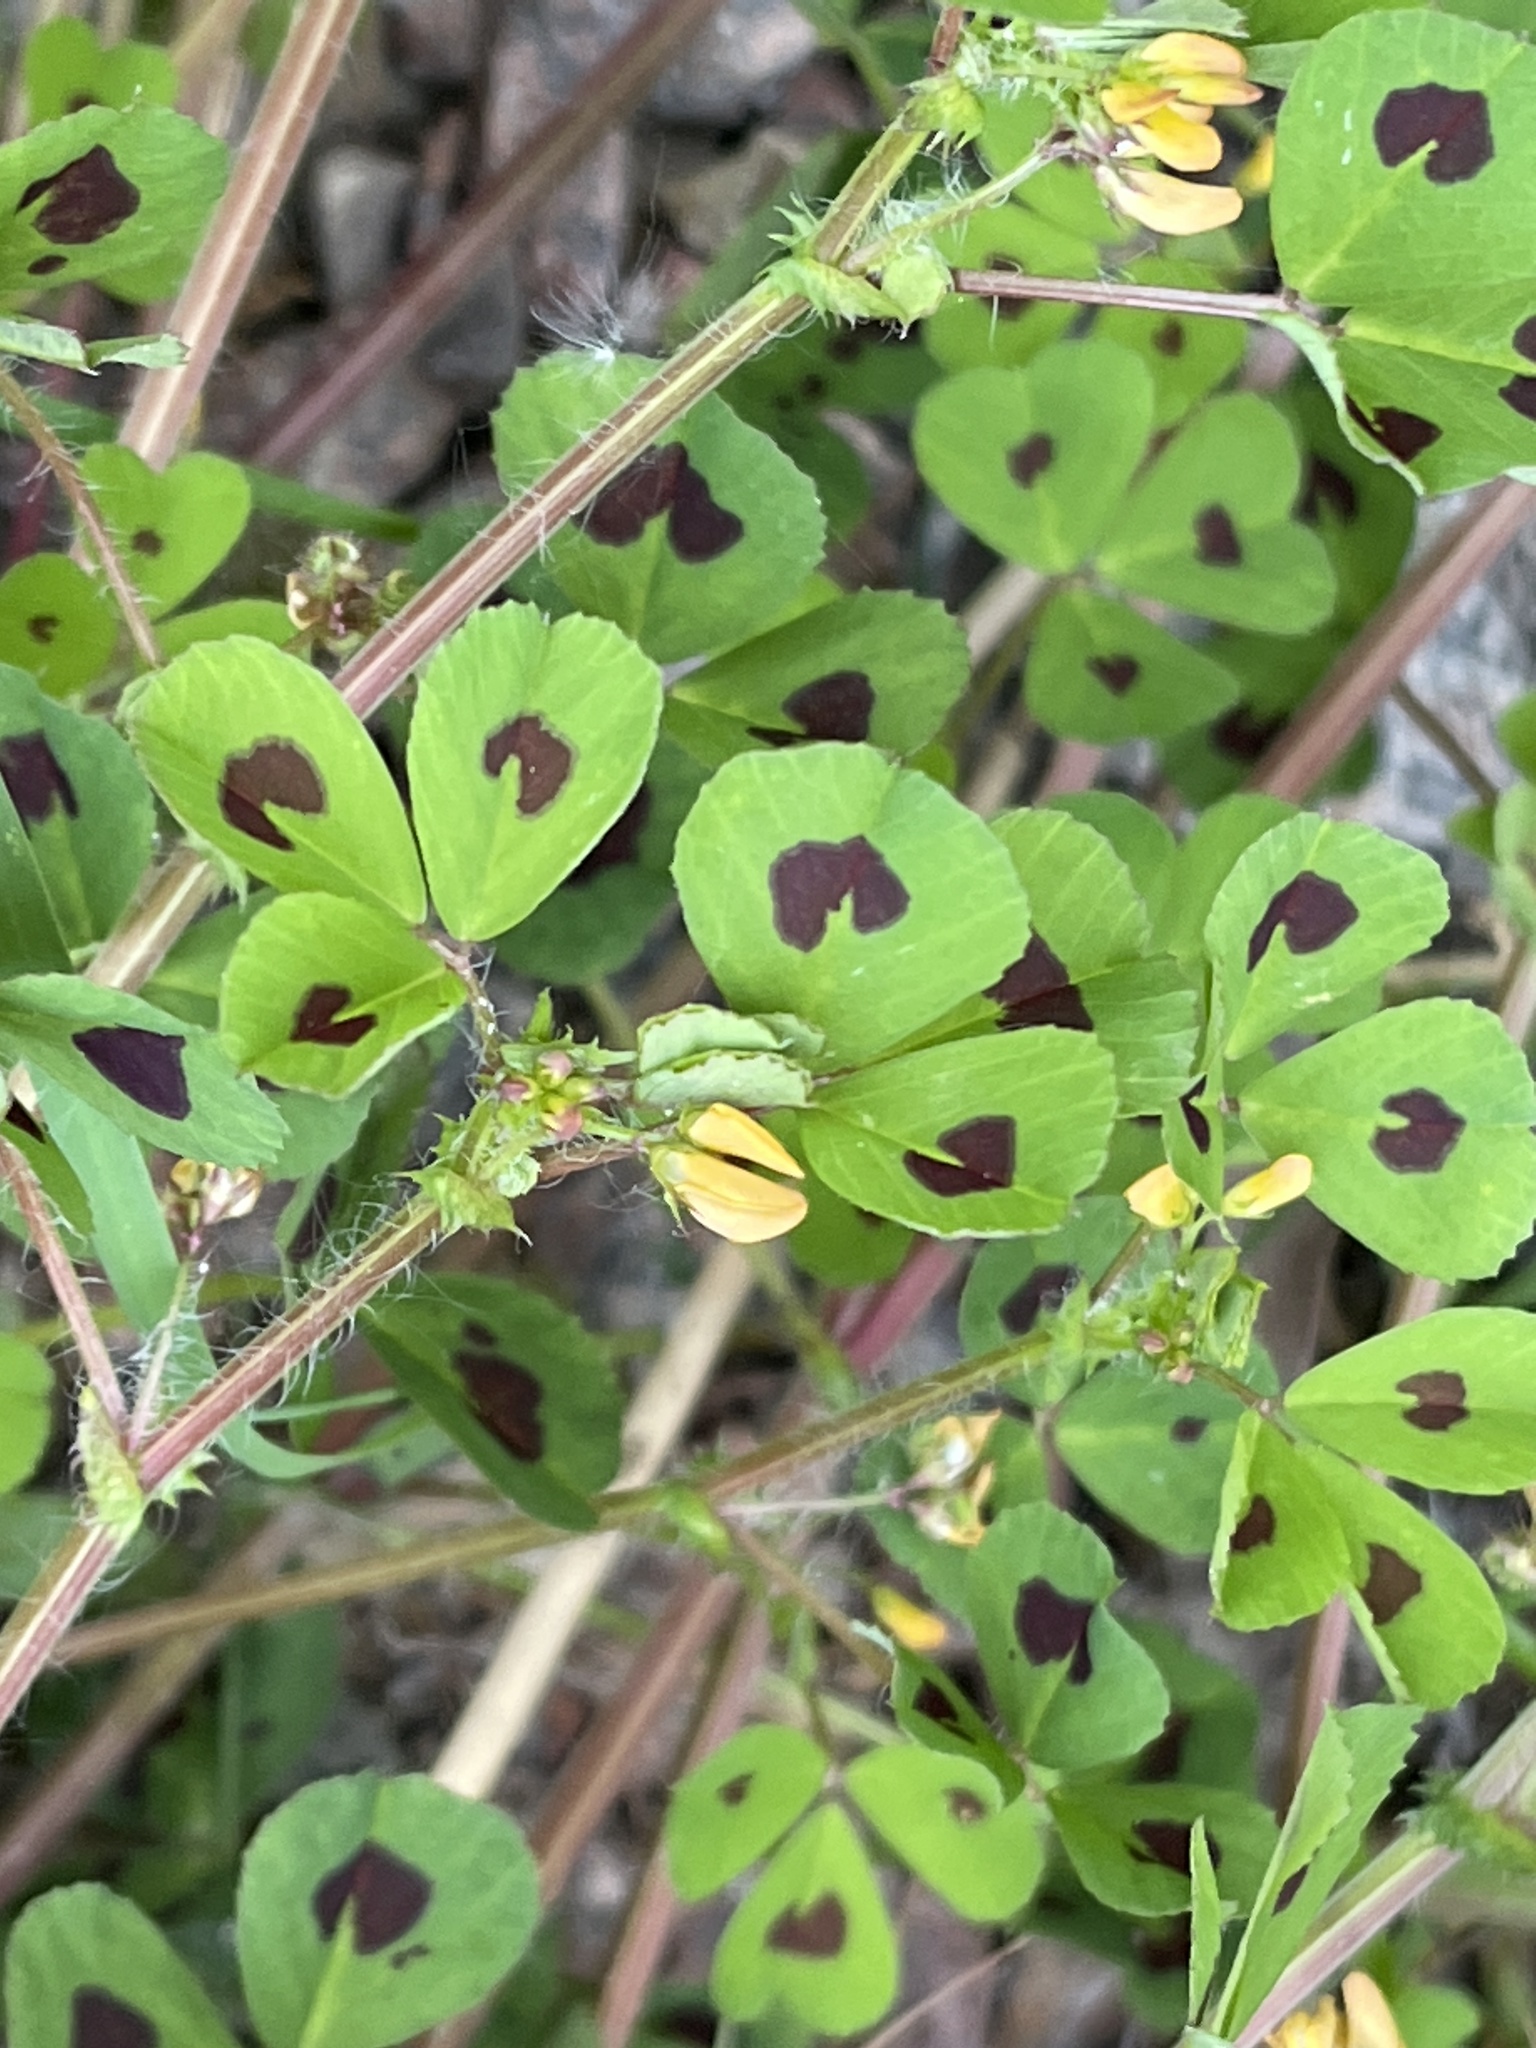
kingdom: Plantae
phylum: Tracheophyta
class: Magnoliopsida
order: Fabales
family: Fabaceae
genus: Medicago
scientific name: Medicago arabica
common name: Spotted medick
